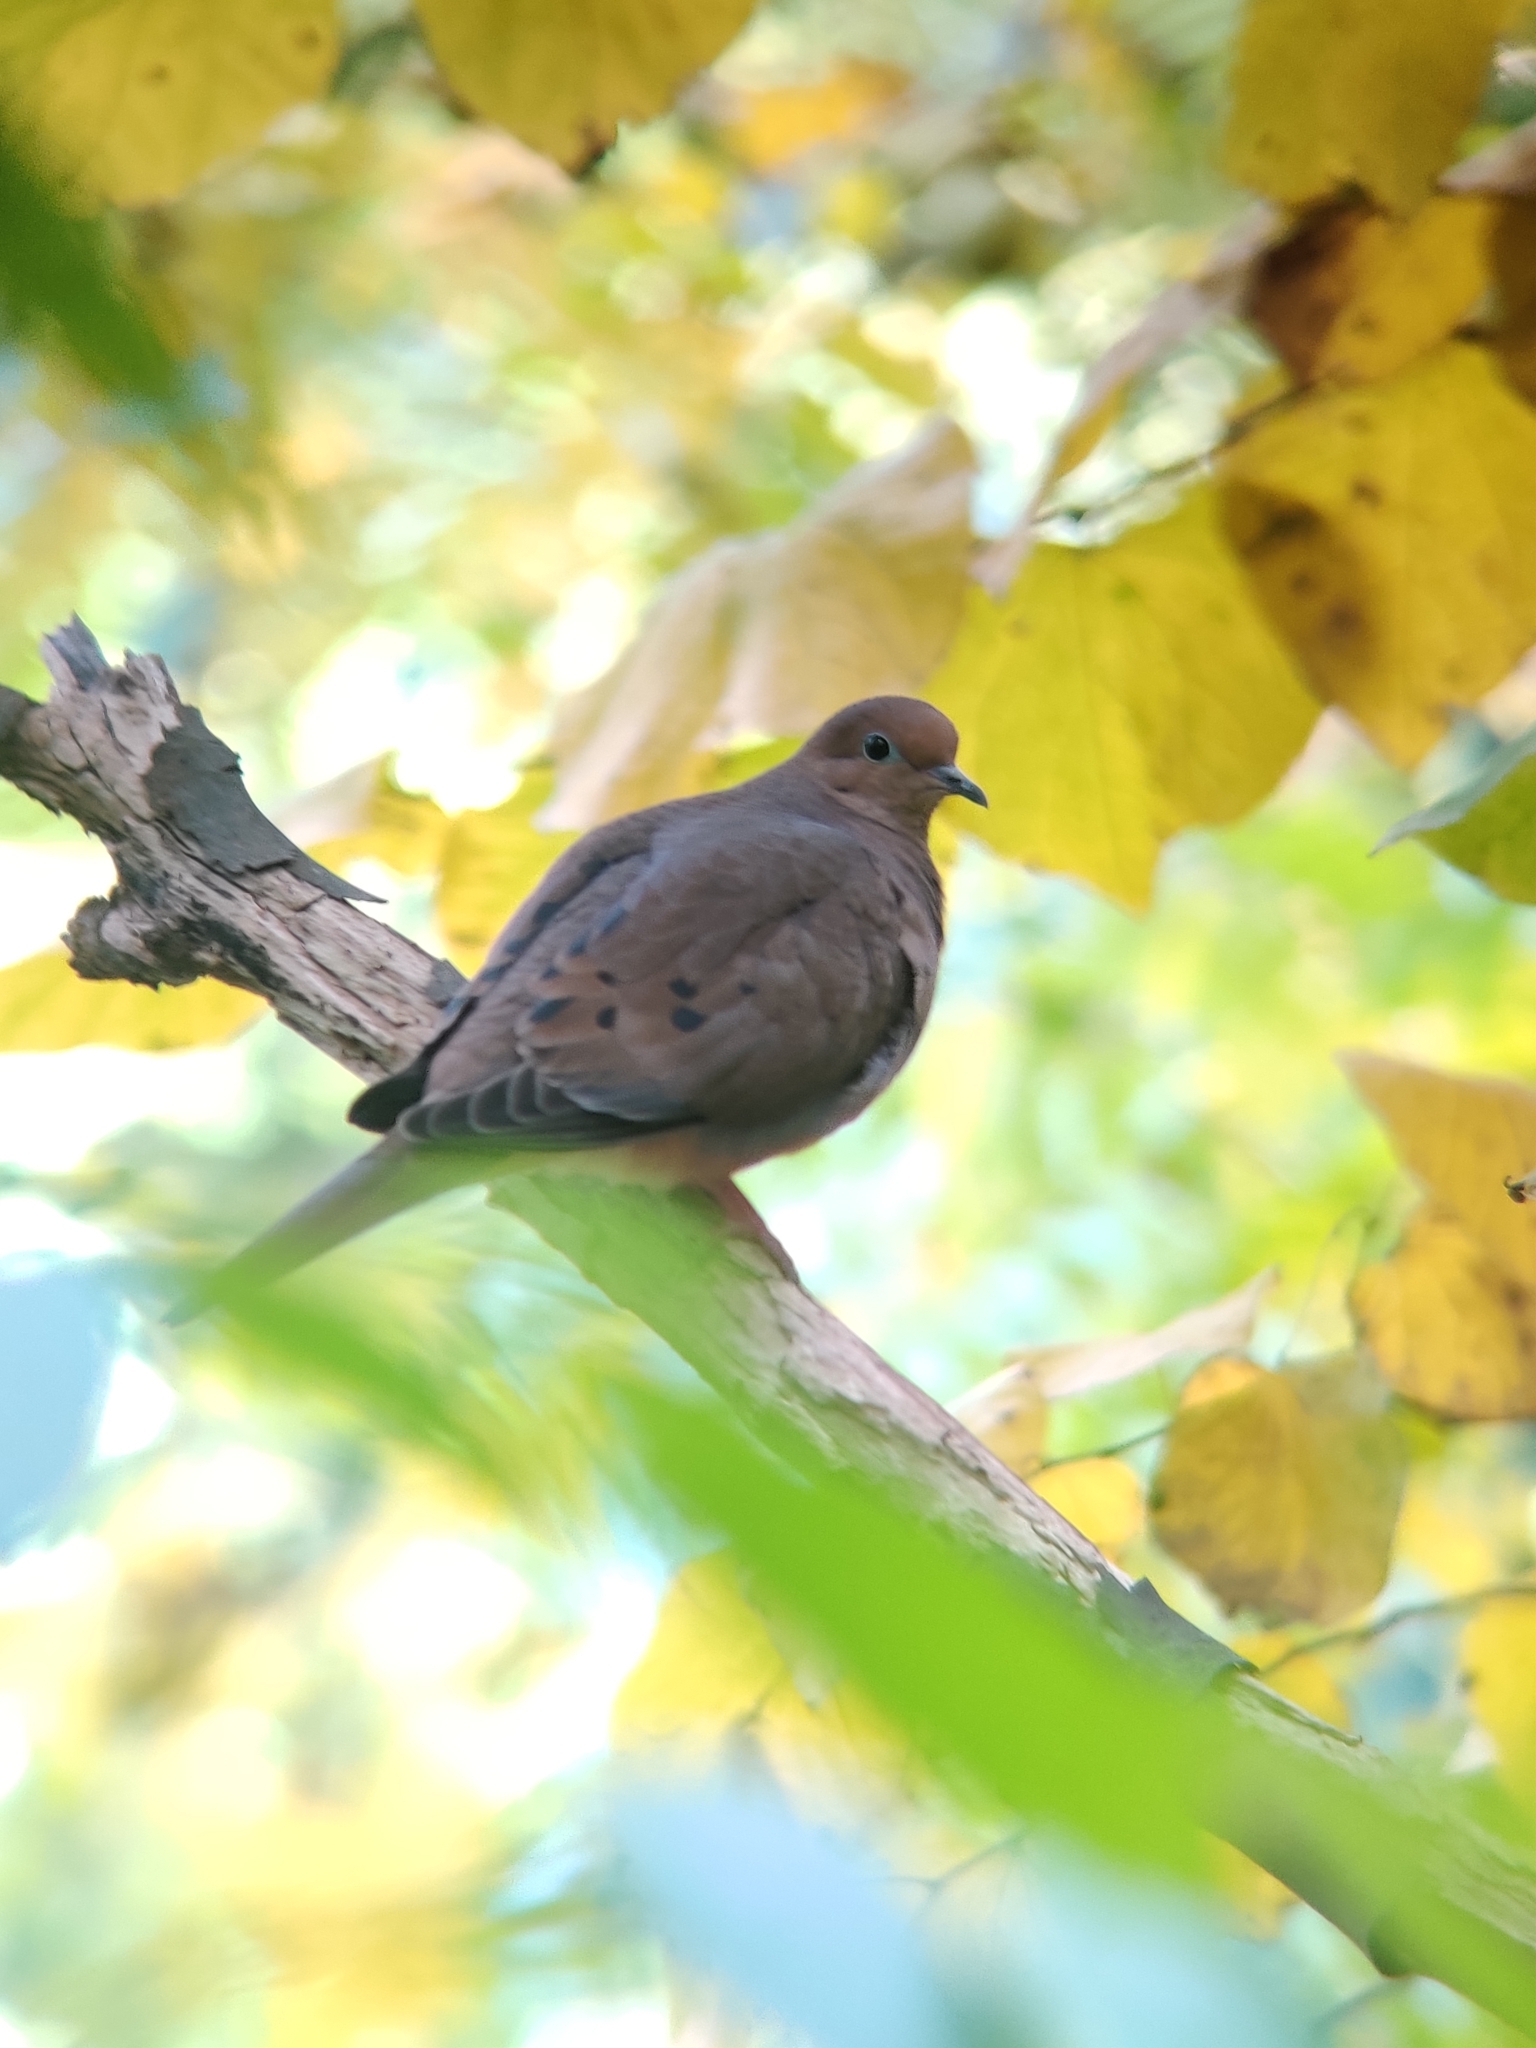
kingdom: Animalia
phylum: Chordata
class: Aves
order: Columbiformes
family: Columbidae
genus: Zenaida
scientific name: Zenaida macroura
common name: Mourning dove
